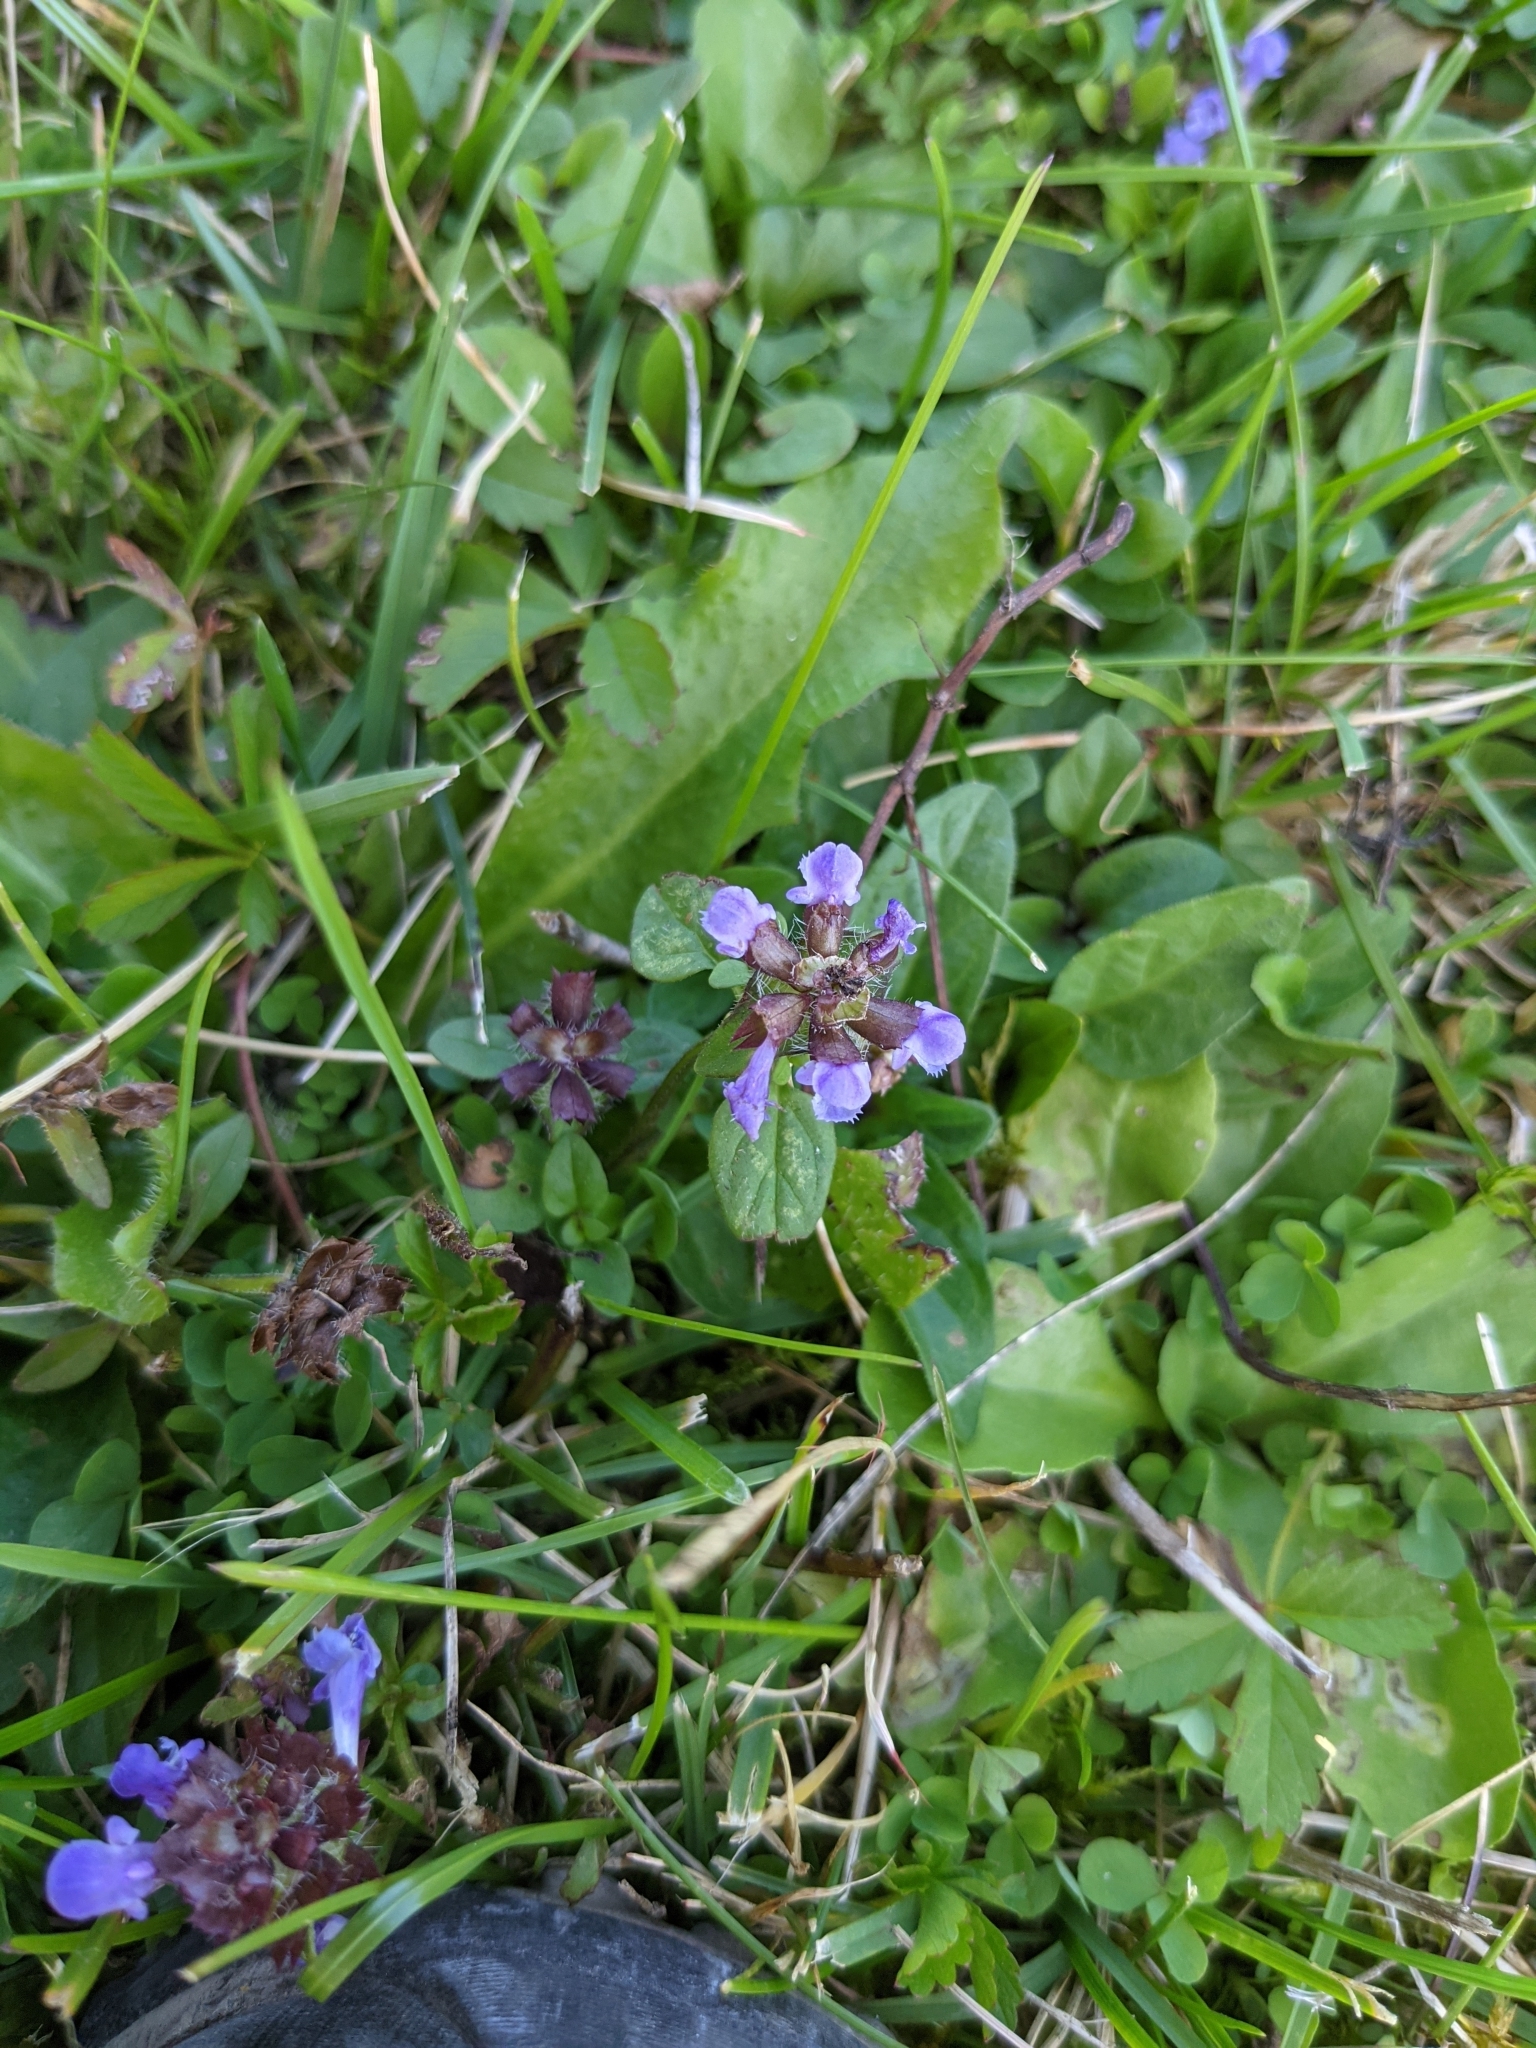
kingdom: Plantae
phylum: Tracheophyta
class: Magnoliopsida
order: Lamiales
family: Lamiaceae
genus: Prunella
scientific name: Prunella vulgaris
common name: Heal-all
